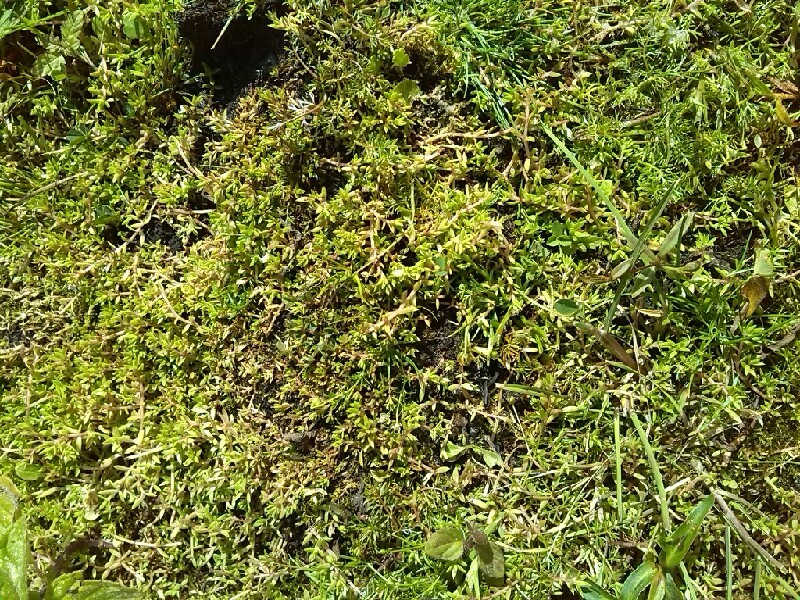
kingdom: Plantae
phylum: Tracheophyta
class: Magnoliopsida
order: Saxifragales
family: Crassulaceae
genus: Crassula
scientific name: Crassula helmsii
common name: New zealand pigmyweed
